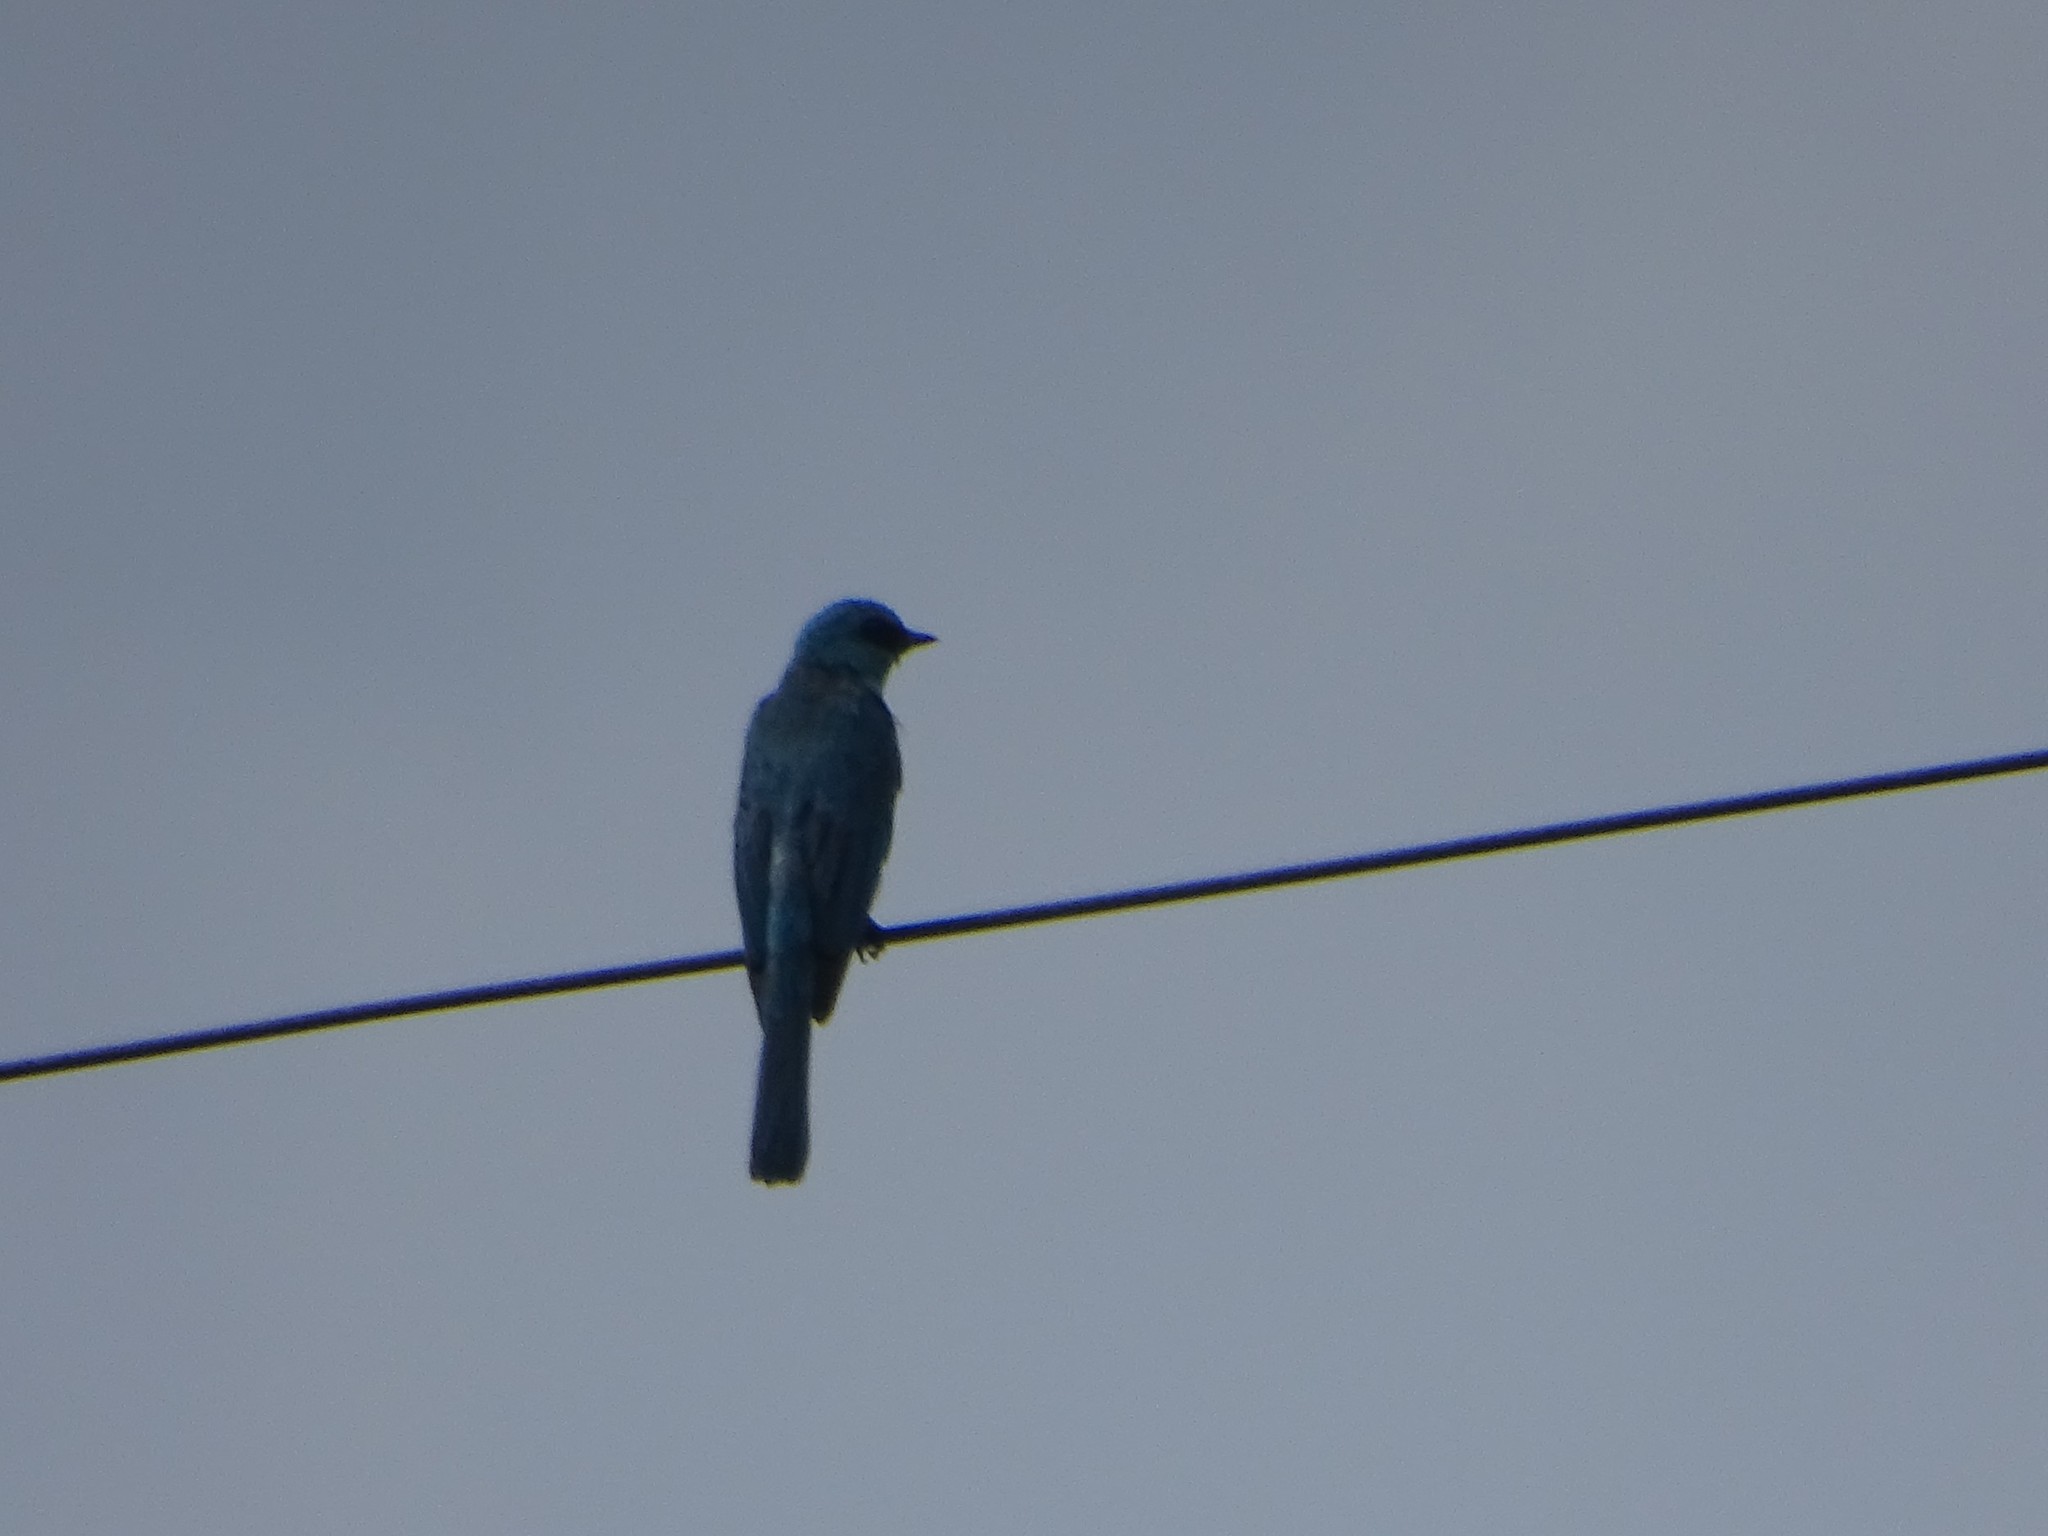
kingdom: Animalia
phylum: Chordata
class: Aves
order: Passeriformes
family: Muscicapidae
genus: Eumyias
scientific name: Eumyias thalassinus
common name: Verditer flycatcher
